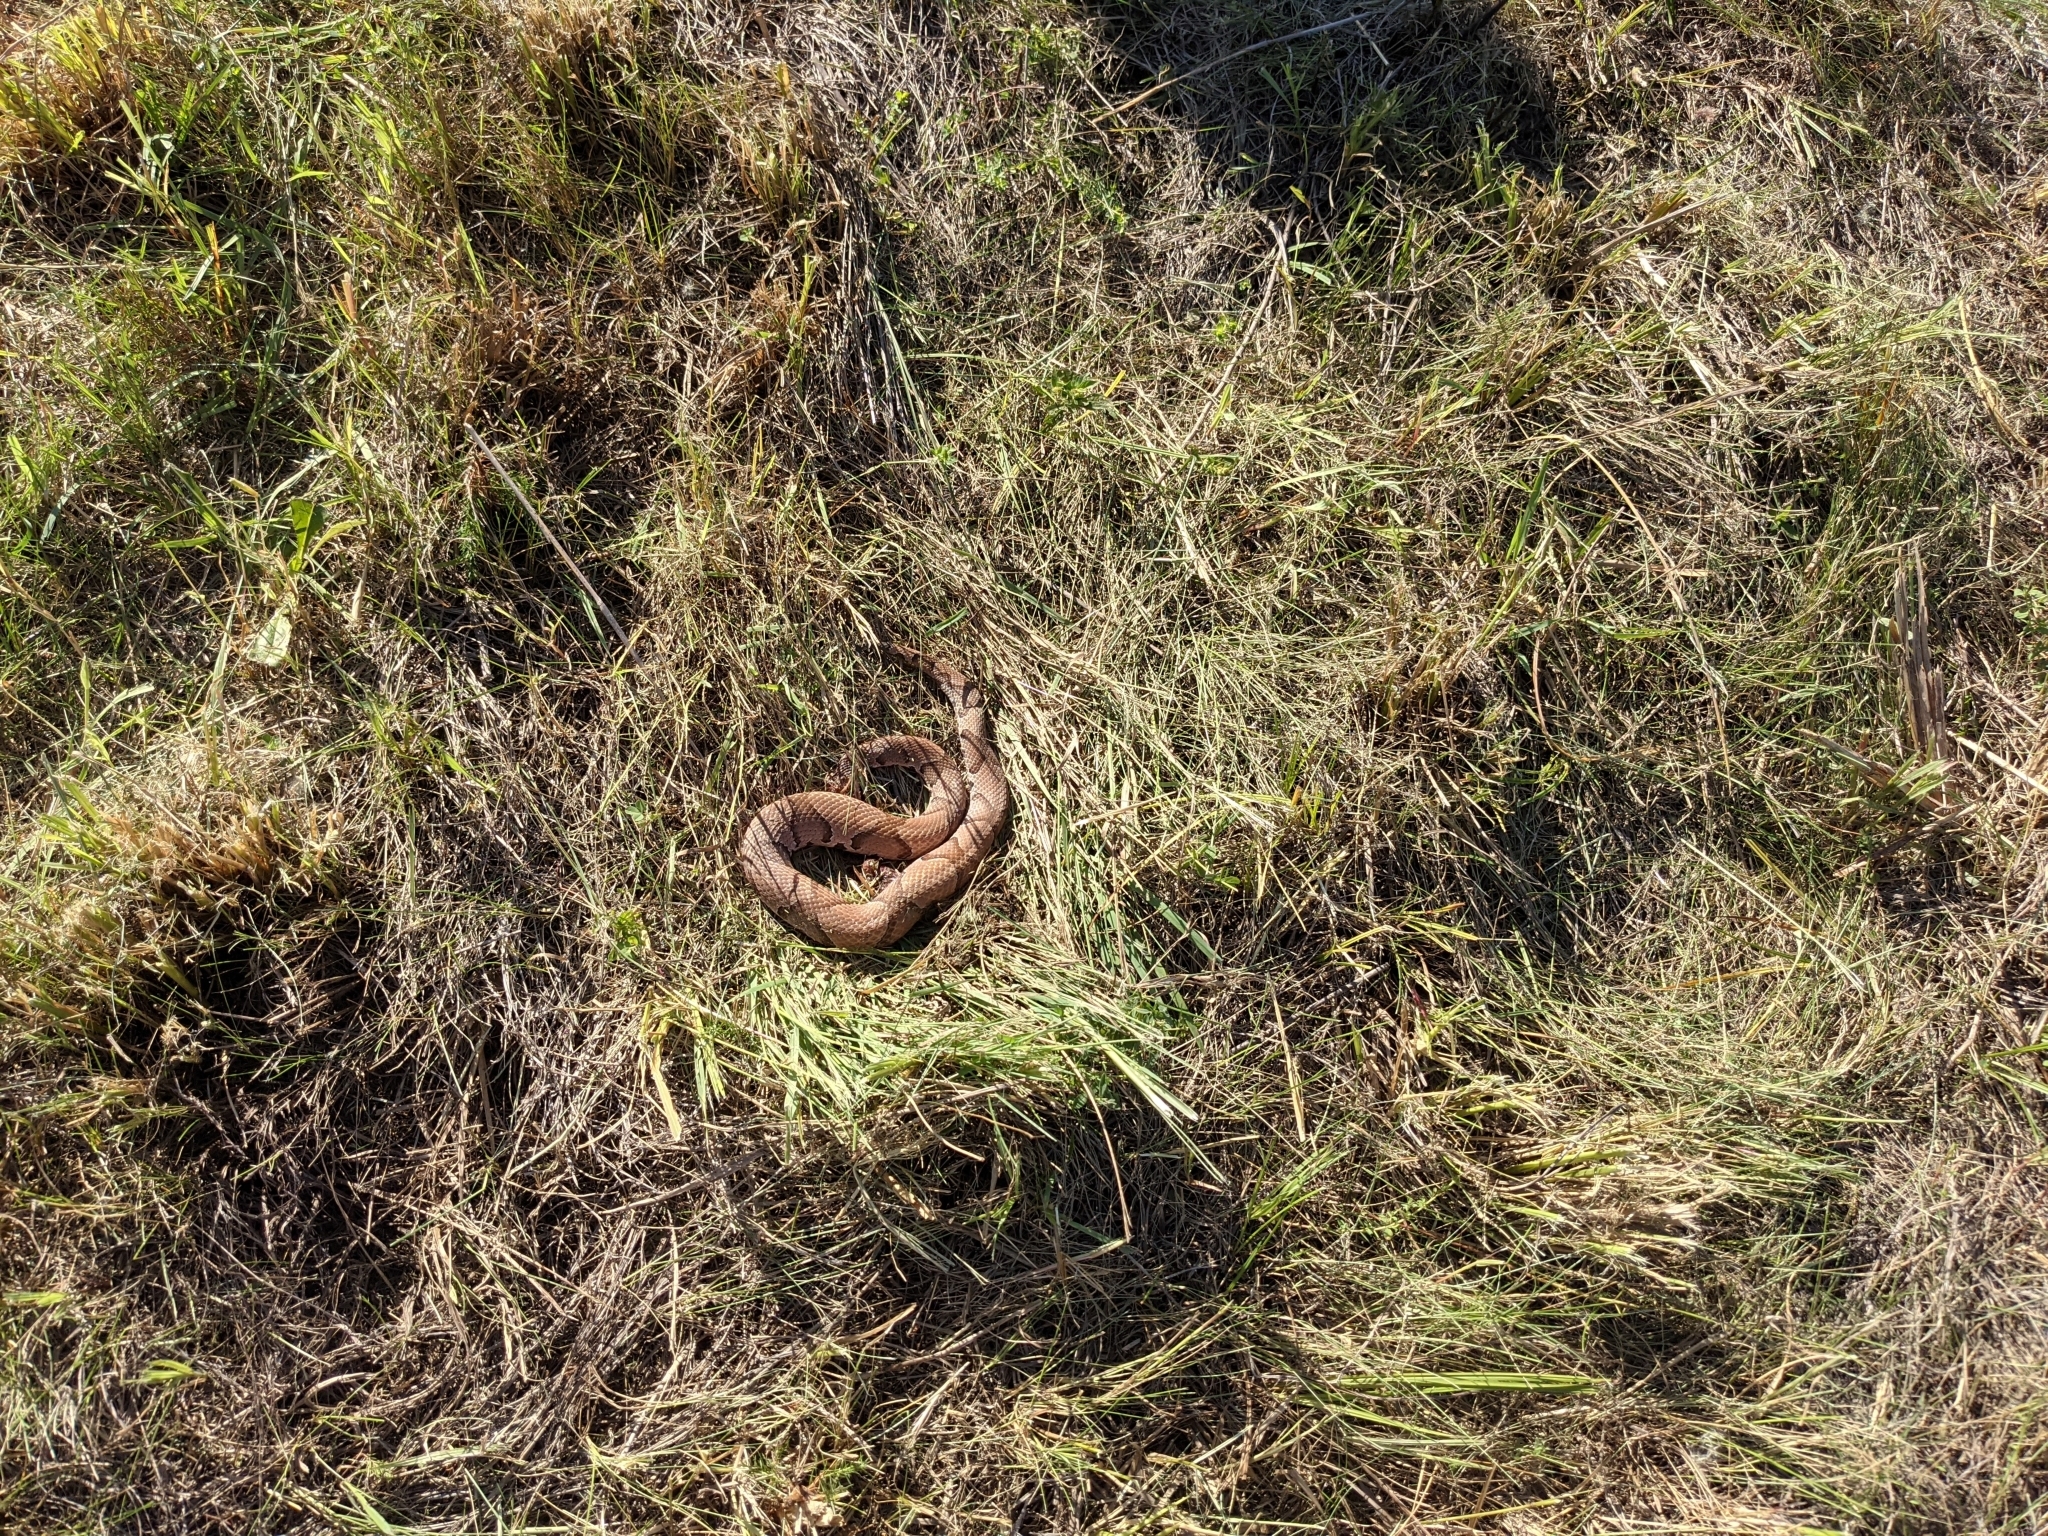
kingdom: Animalia
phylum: Chordata
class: Squamata
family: Viperidae
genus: Agkistrodon
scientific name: Agkistrodon contortrix
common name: Northern copperhead
